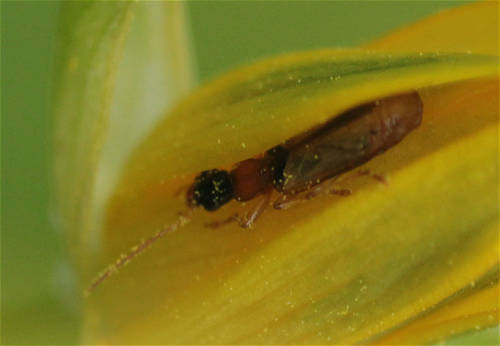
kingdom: Animalia
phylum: Arthropoda
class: Insecta
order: Coleoptera
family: Carabidae
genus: Demetrias
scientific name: Demetrias atricapillus
